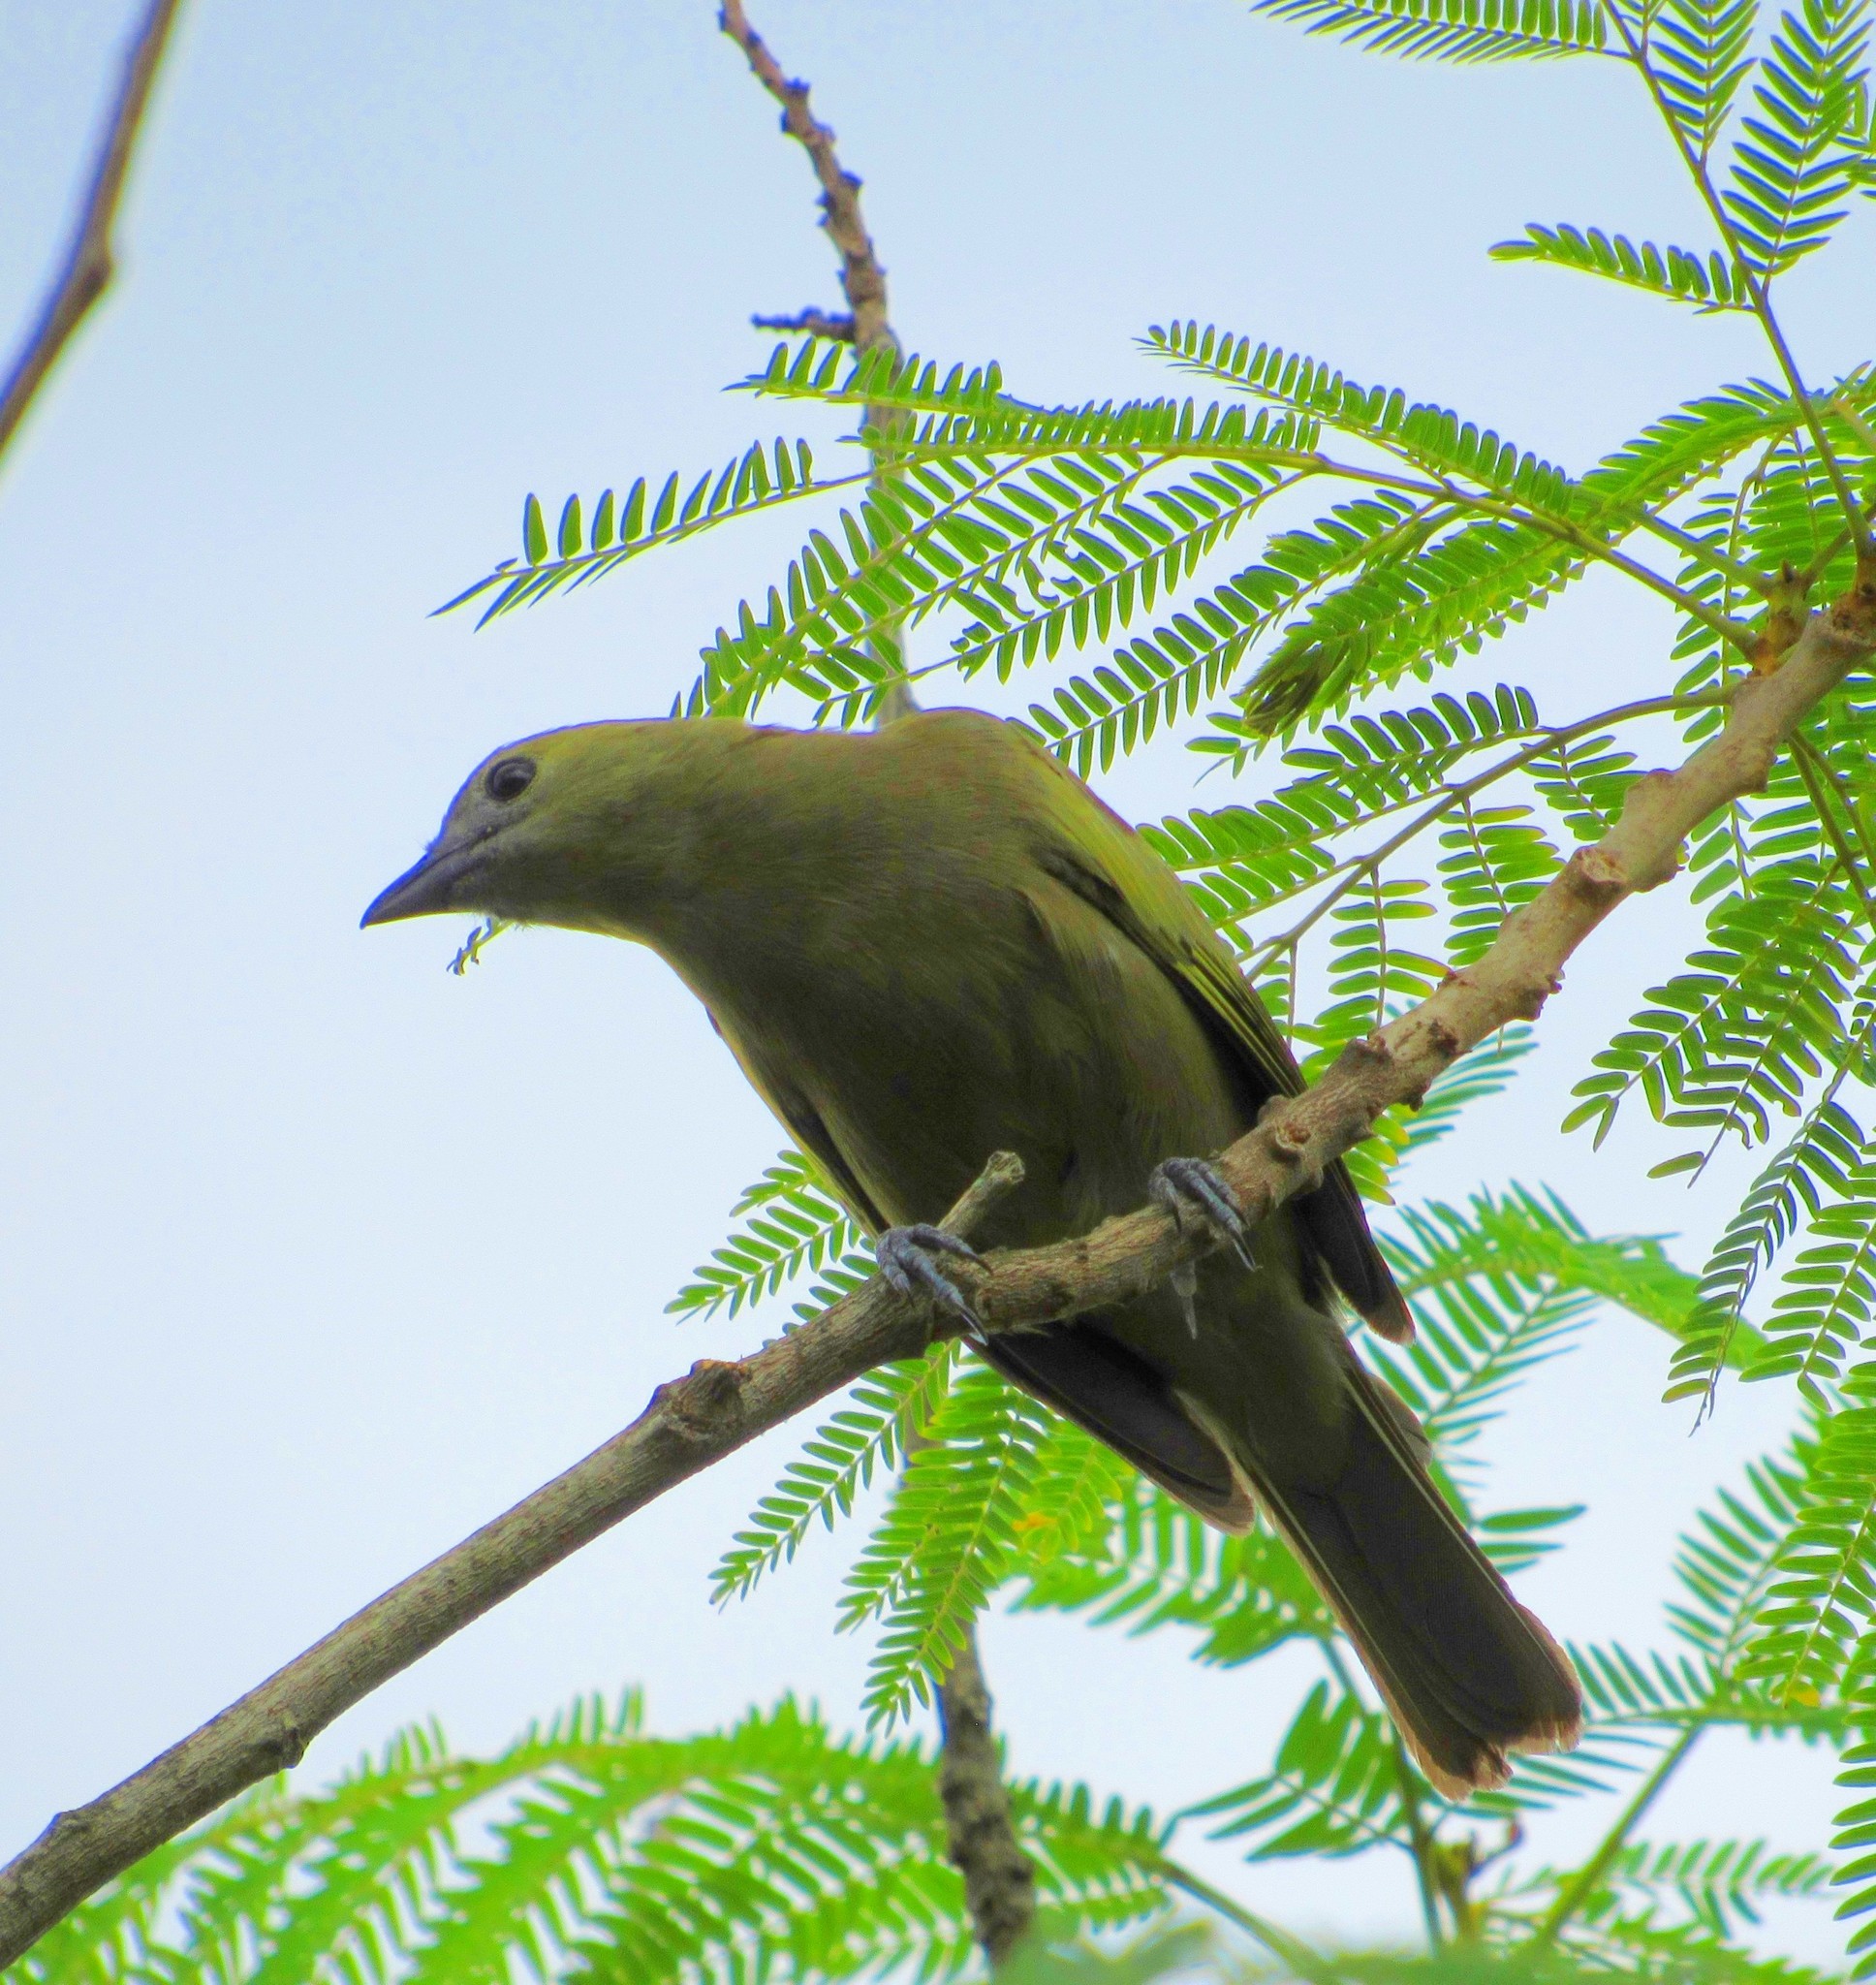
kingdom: Animalia
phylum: Chordata
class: Aves
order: Passeriformes
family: Thraupidae
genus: Thraupis
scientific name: Thraupis palmarum
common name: Palm tanager
